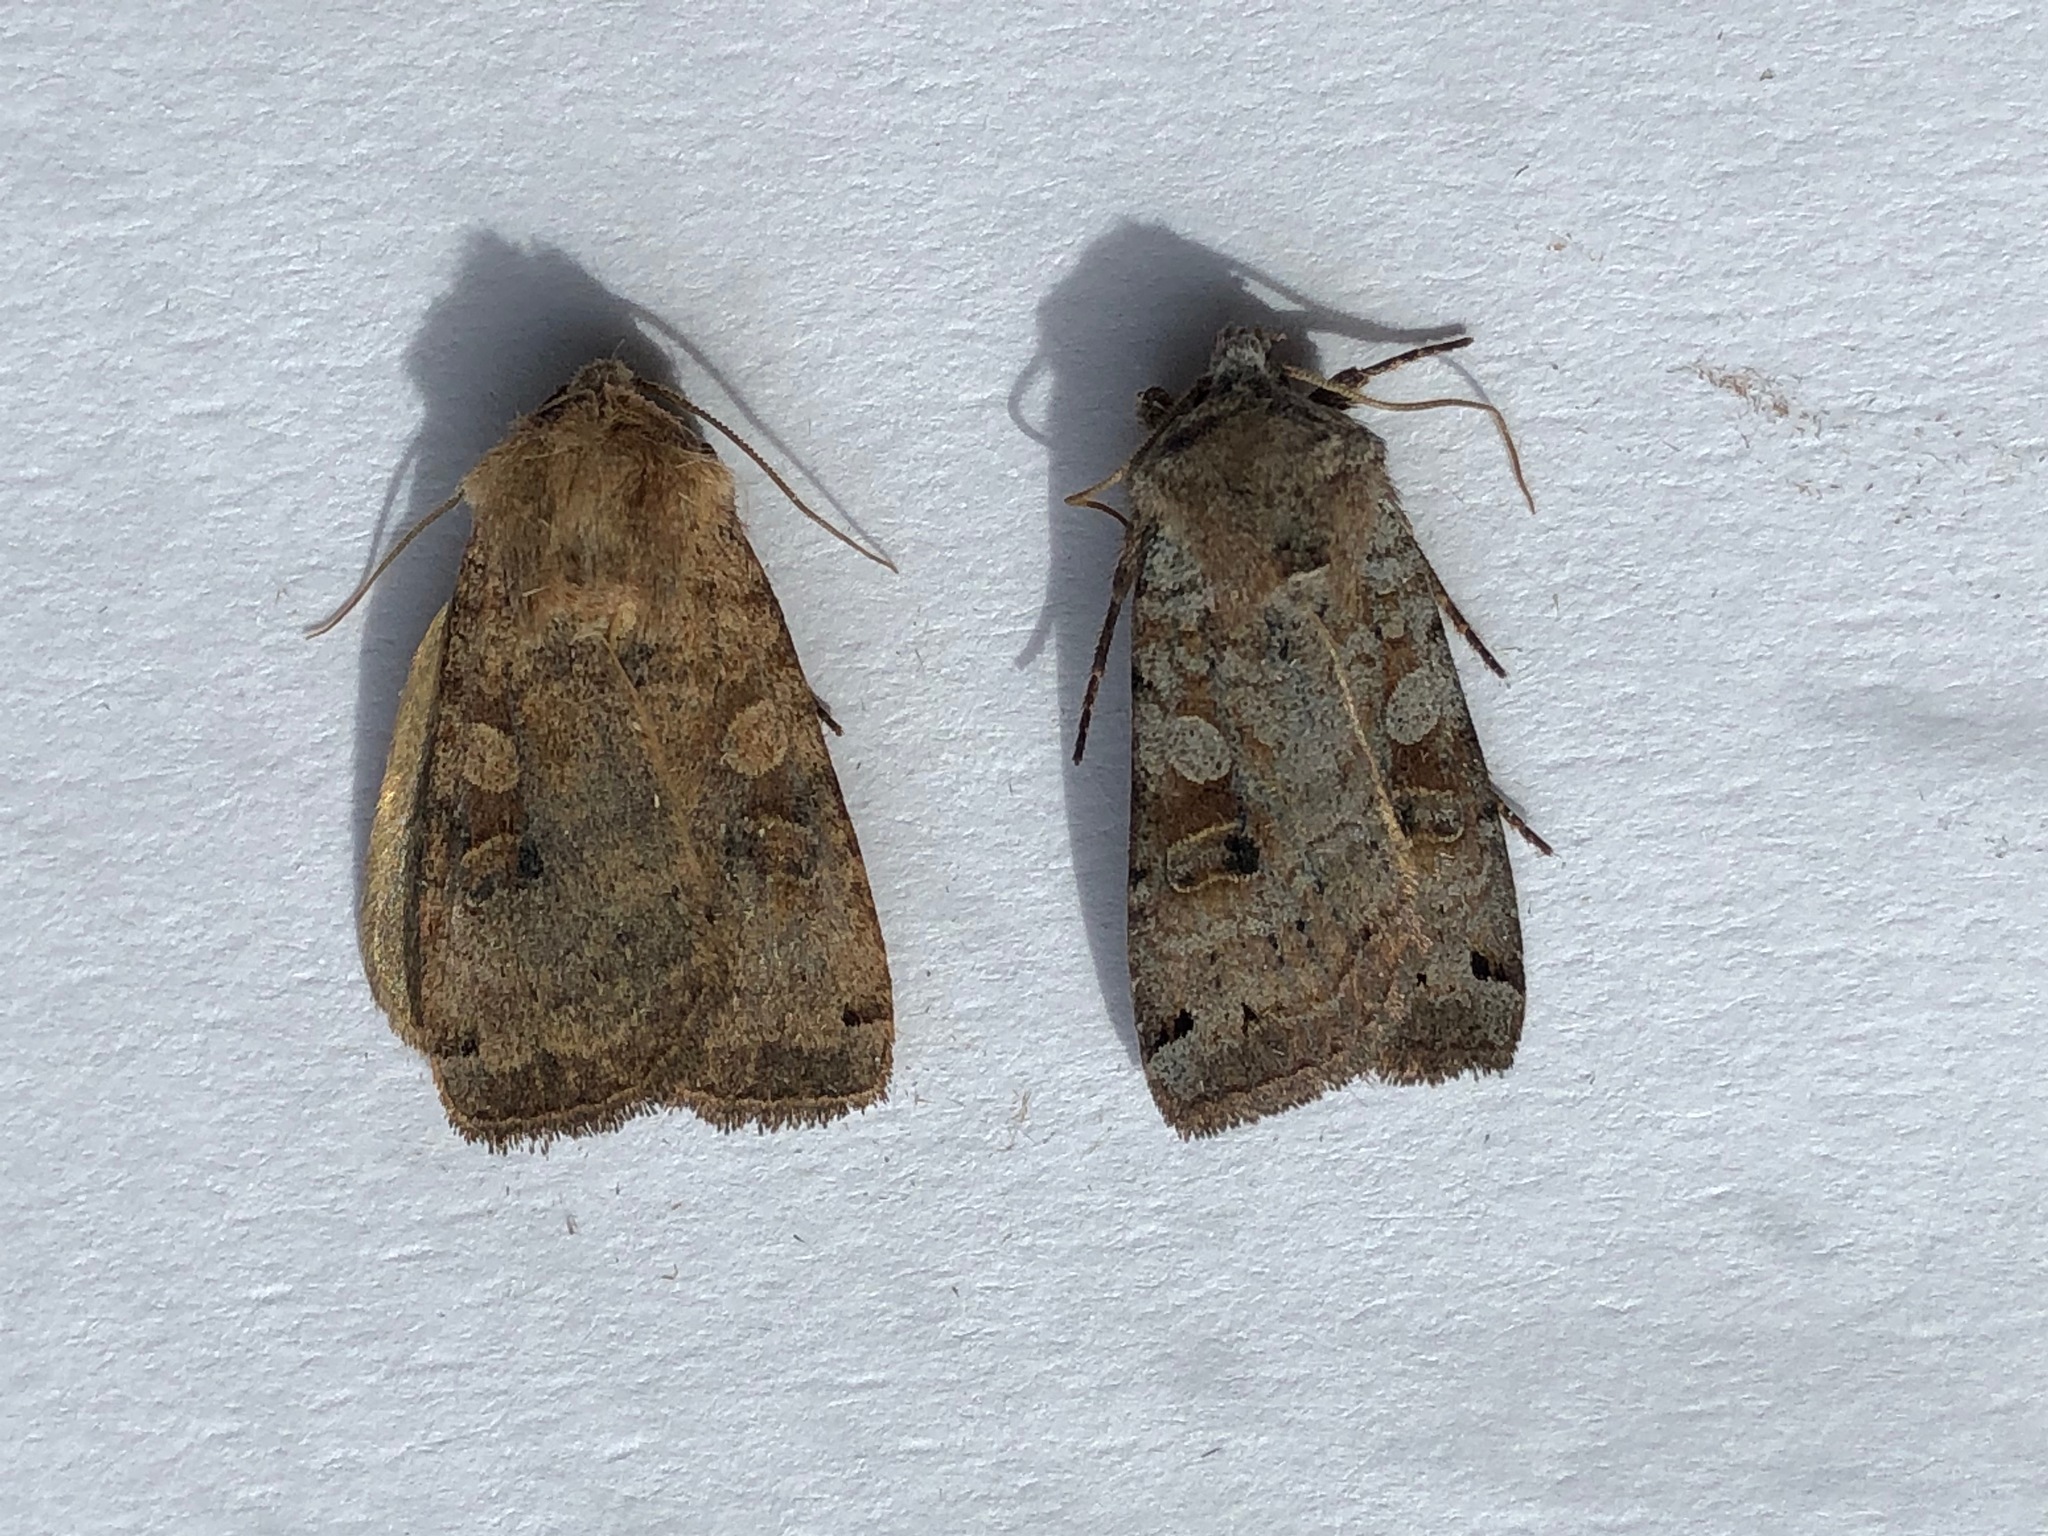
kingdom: Animalia
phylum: Arthropoda
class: Insecta
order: Lepidoptera
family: Noctuidae
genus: Xestia
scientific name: Xestia smithii
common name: Smith's dart
